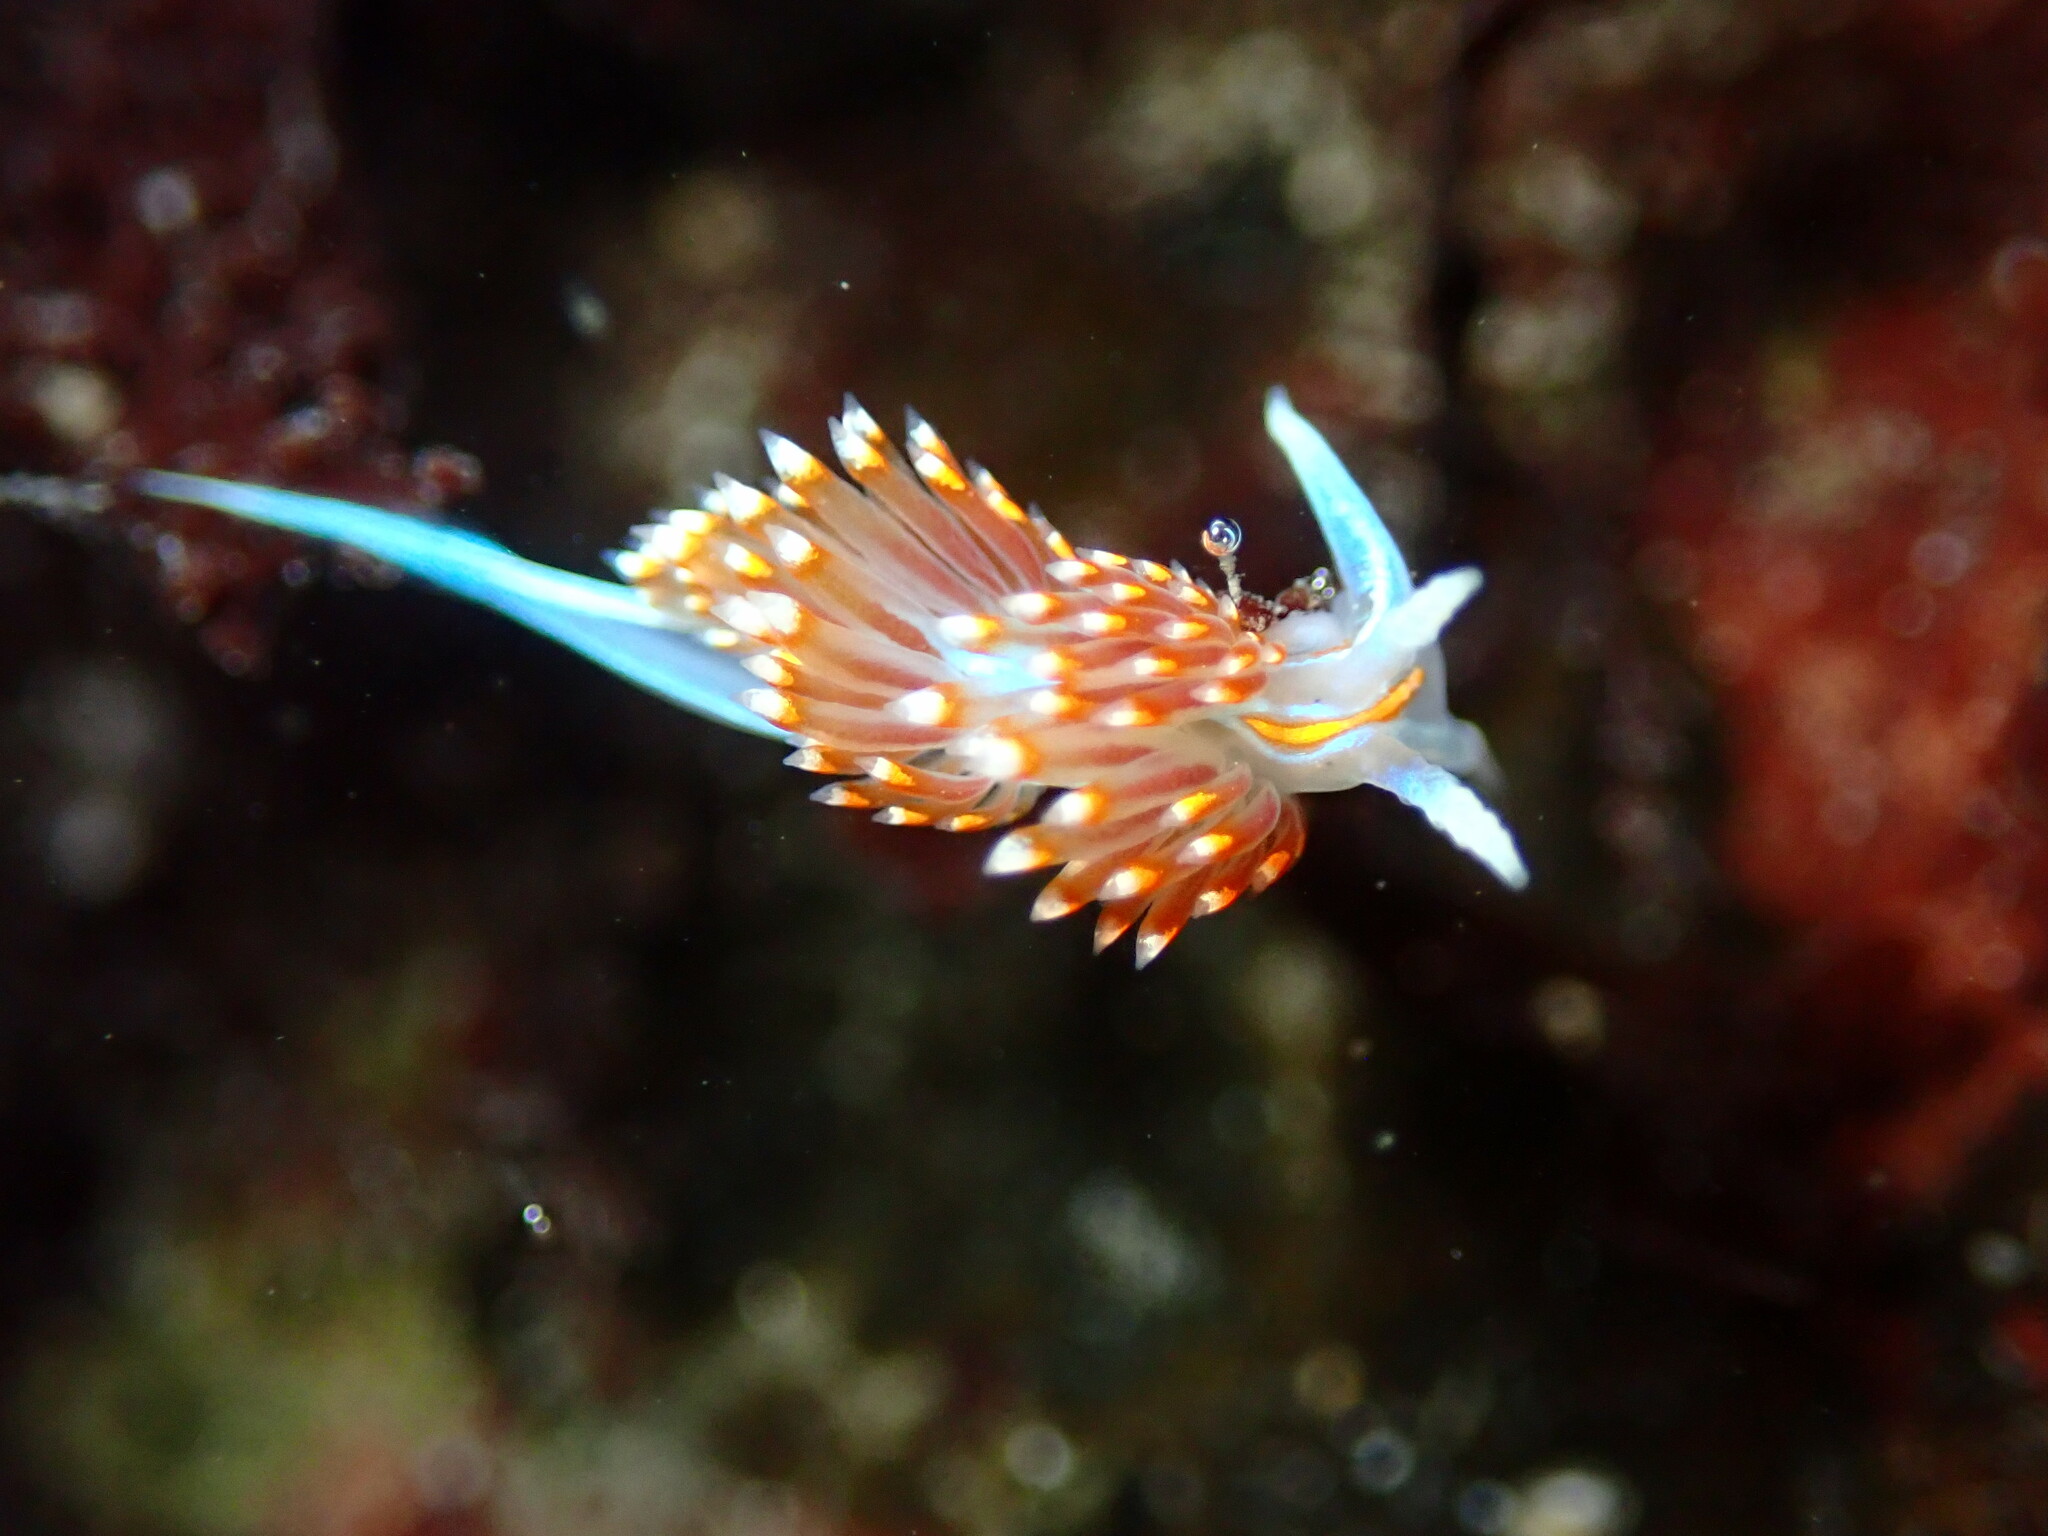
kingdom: Animalia
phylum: Mollusca
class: Gastropoda
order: Nudibranchia
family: Myrrhinidae
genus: Hermissenda
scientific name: Hermissenda opalescens
